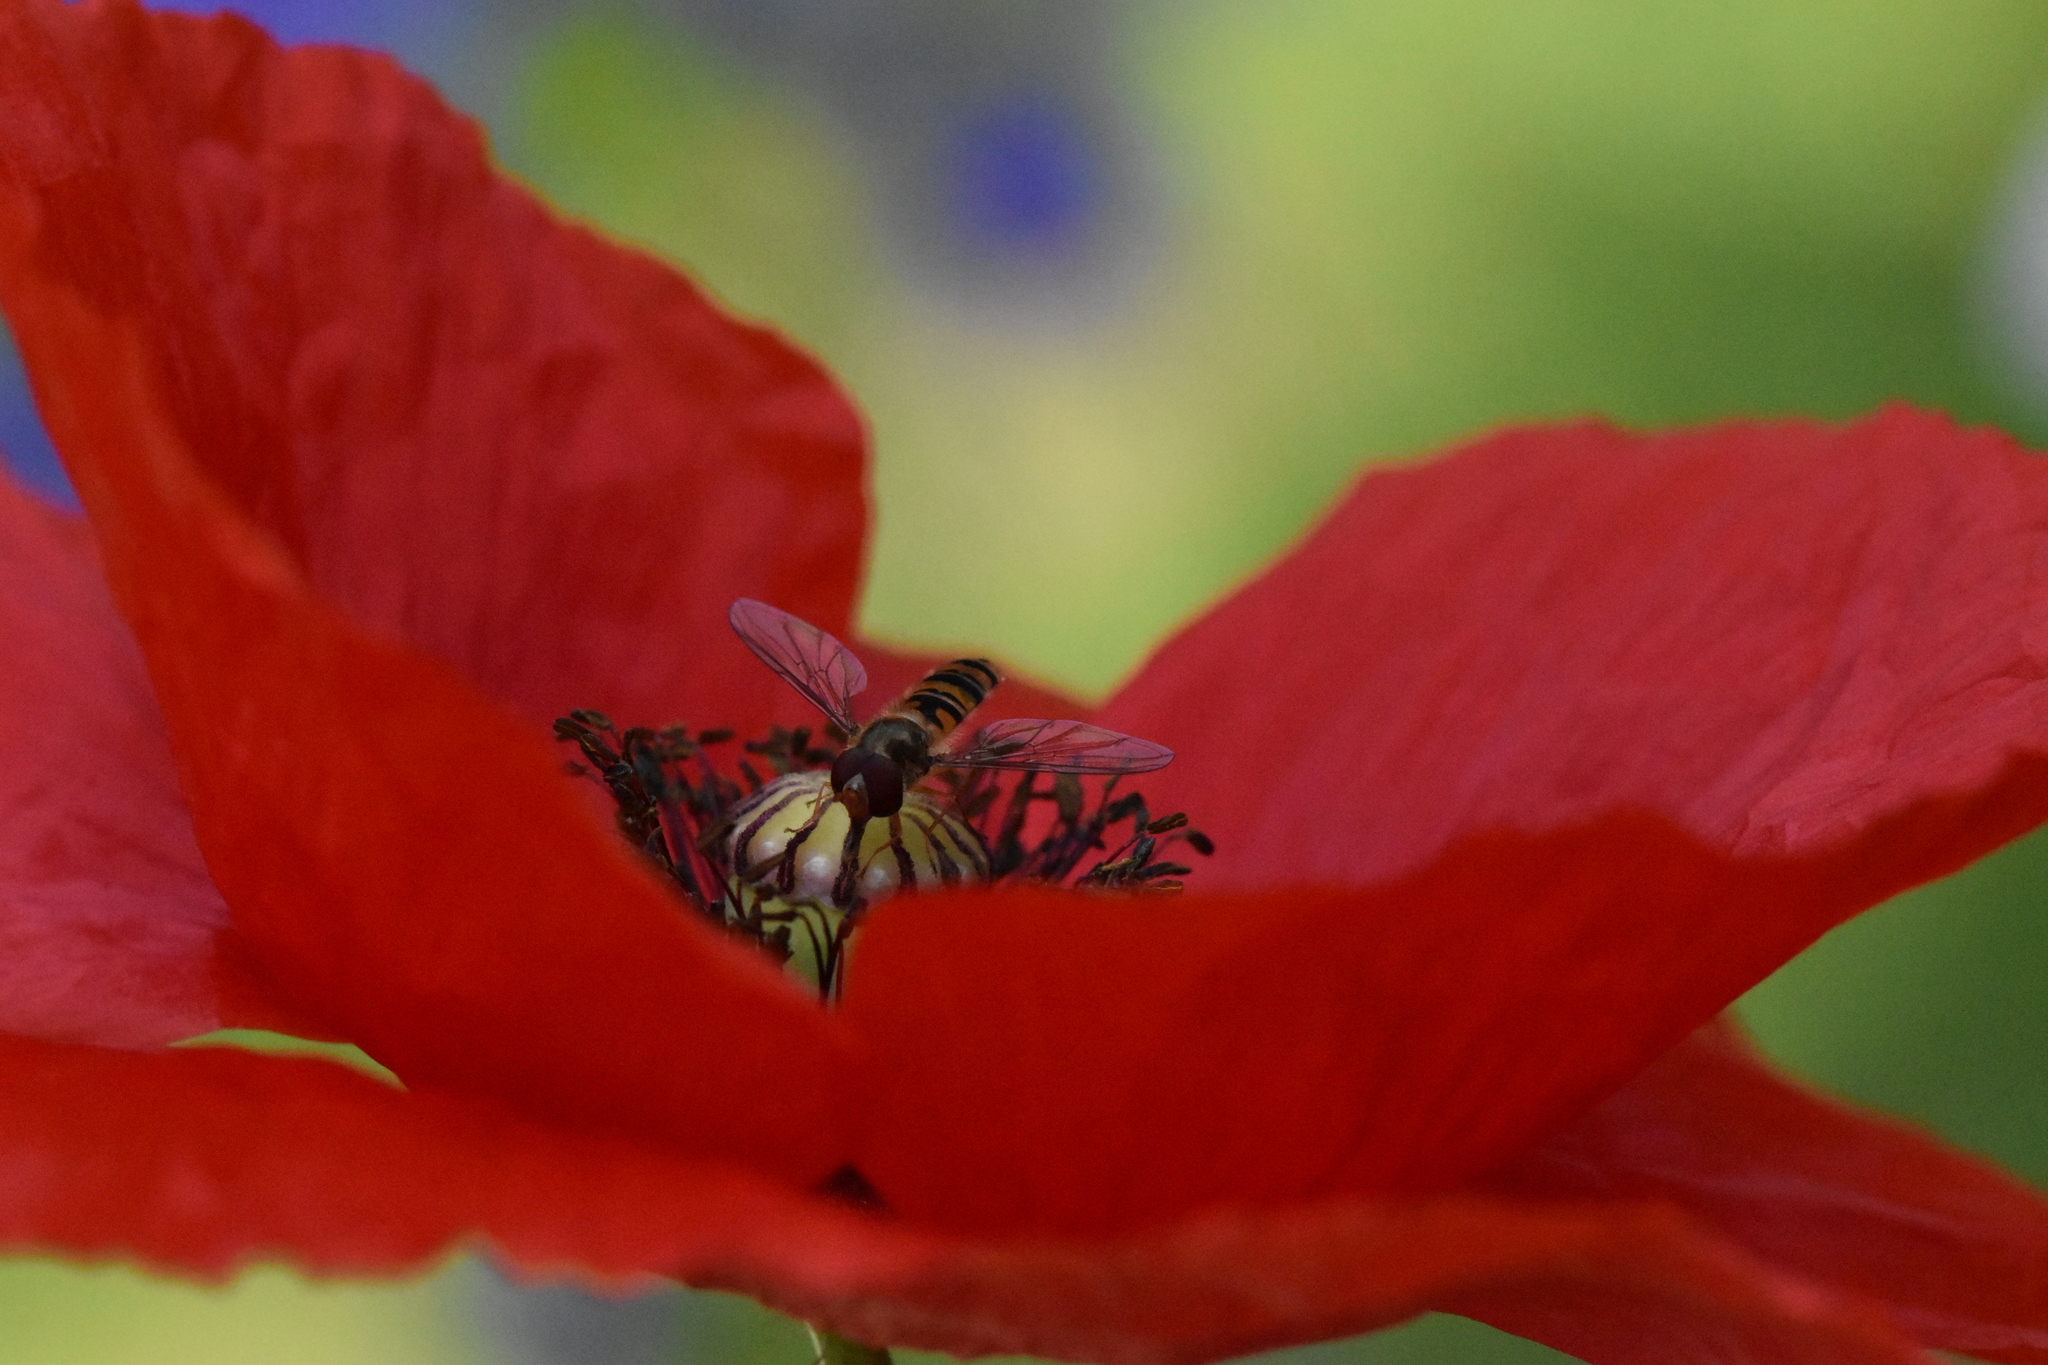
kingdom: Animalia
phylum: Arthropoda
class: Insecta
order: Diptera
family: Syrphidae
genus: Episyrphus
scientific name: Episyrphus balteatus
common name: Marmalade hoverfly
